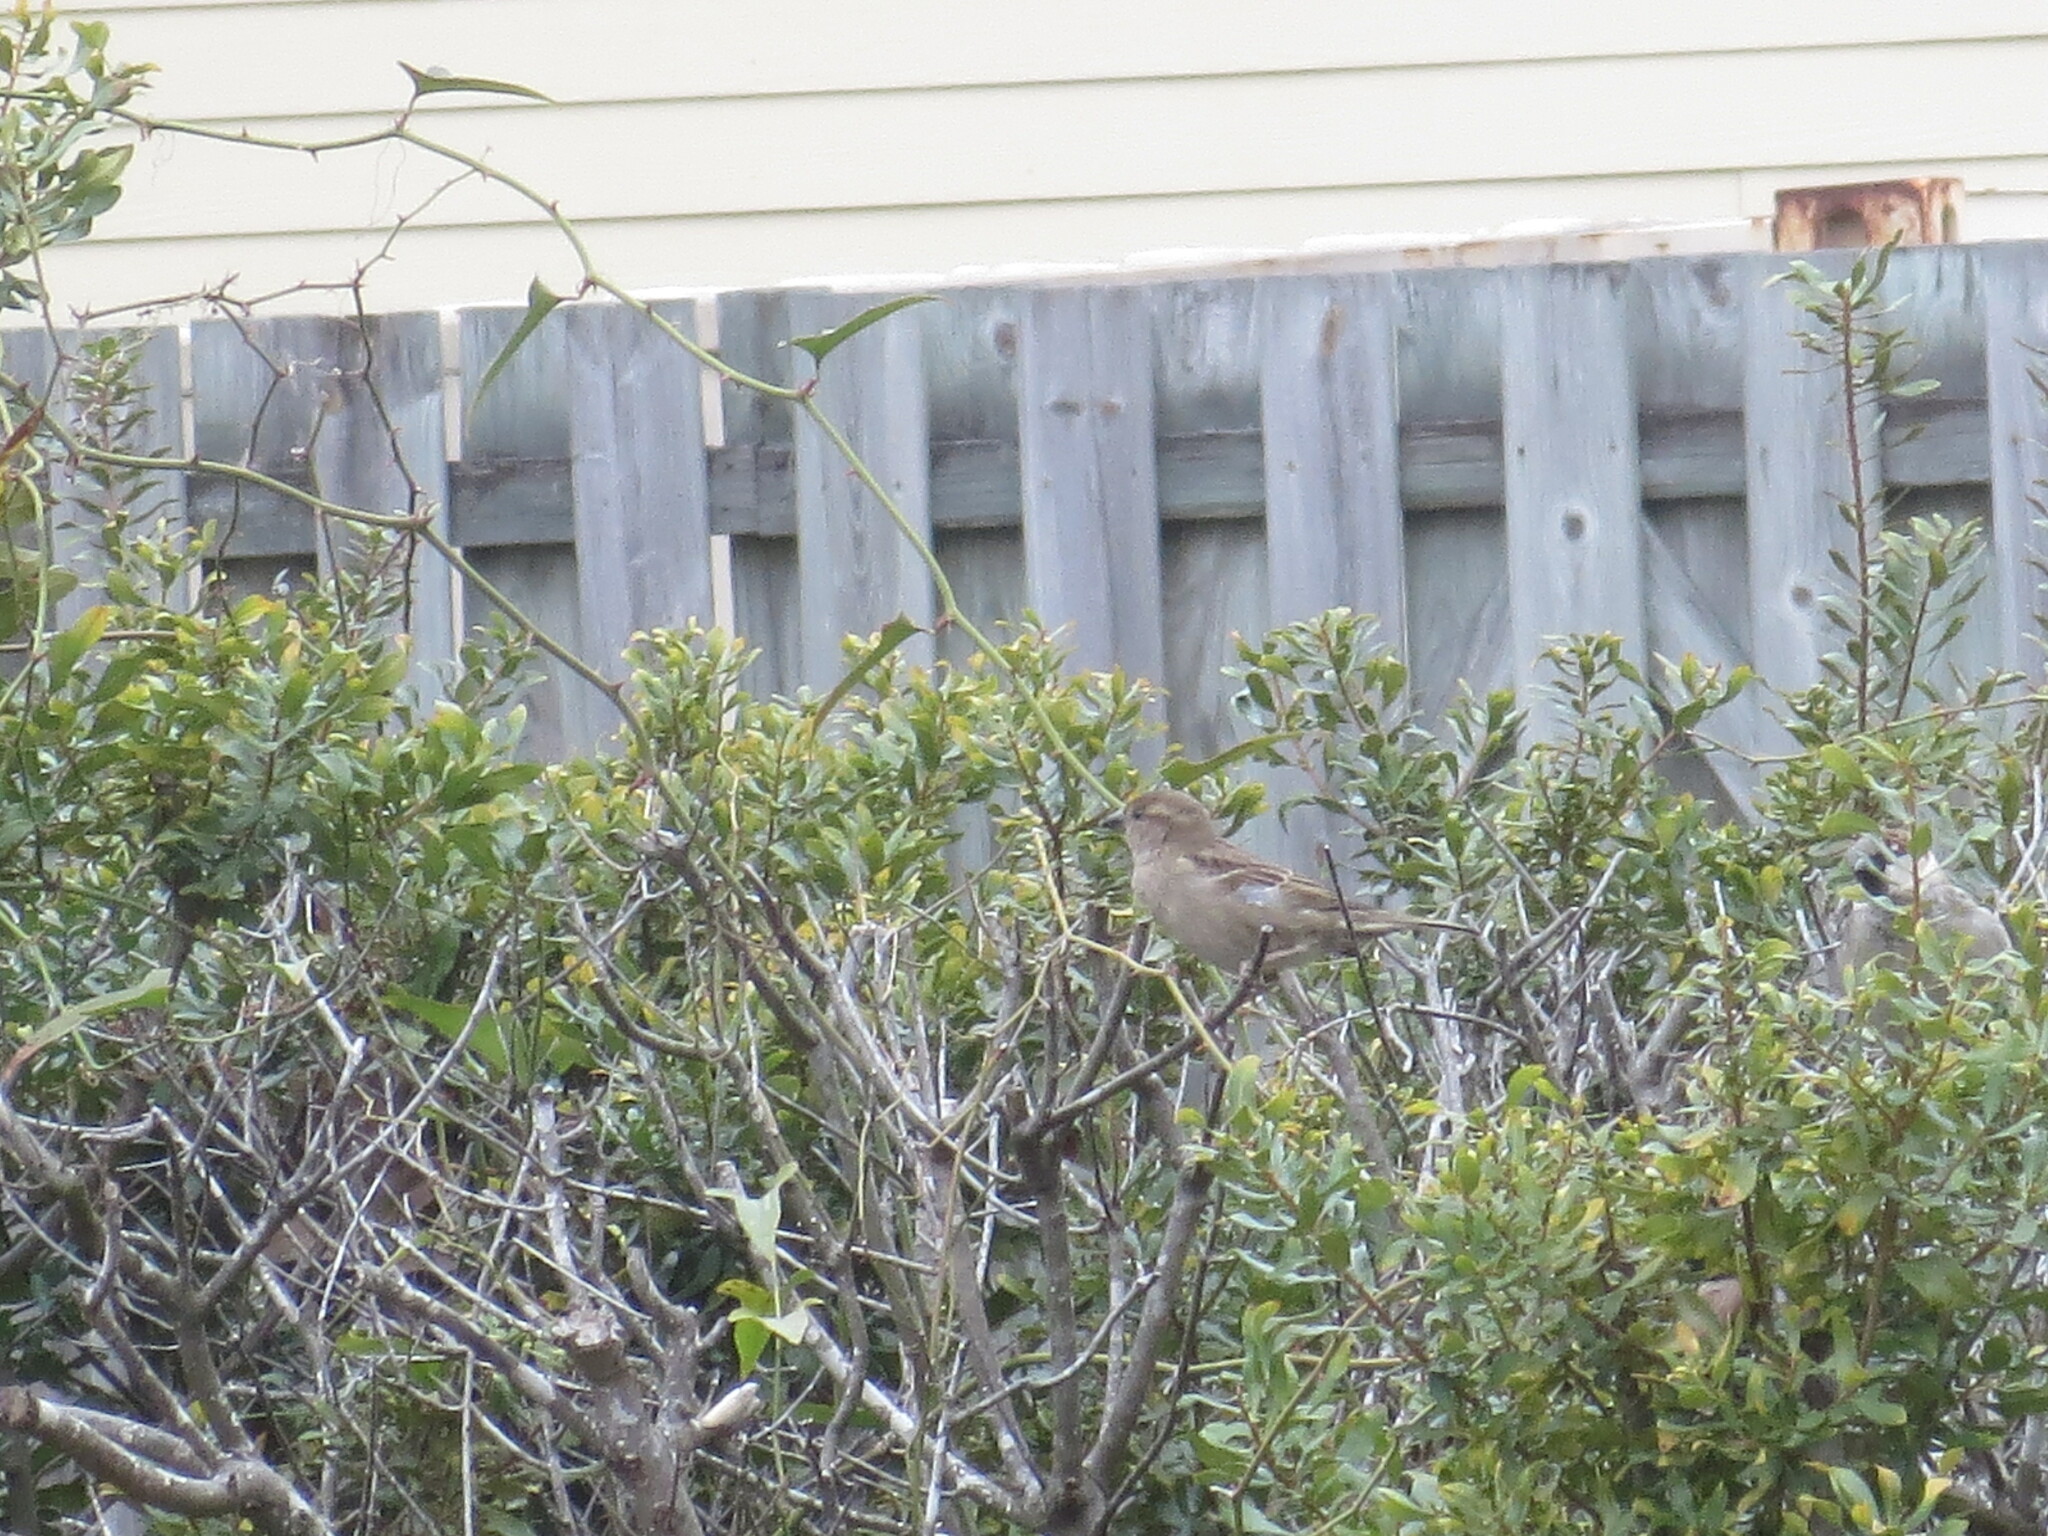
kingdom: Animalia
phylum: Chordata
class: Aves
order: Passeriformes
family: Passeridae
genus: Passer
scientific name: Passer domesticus
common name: House sparrow
